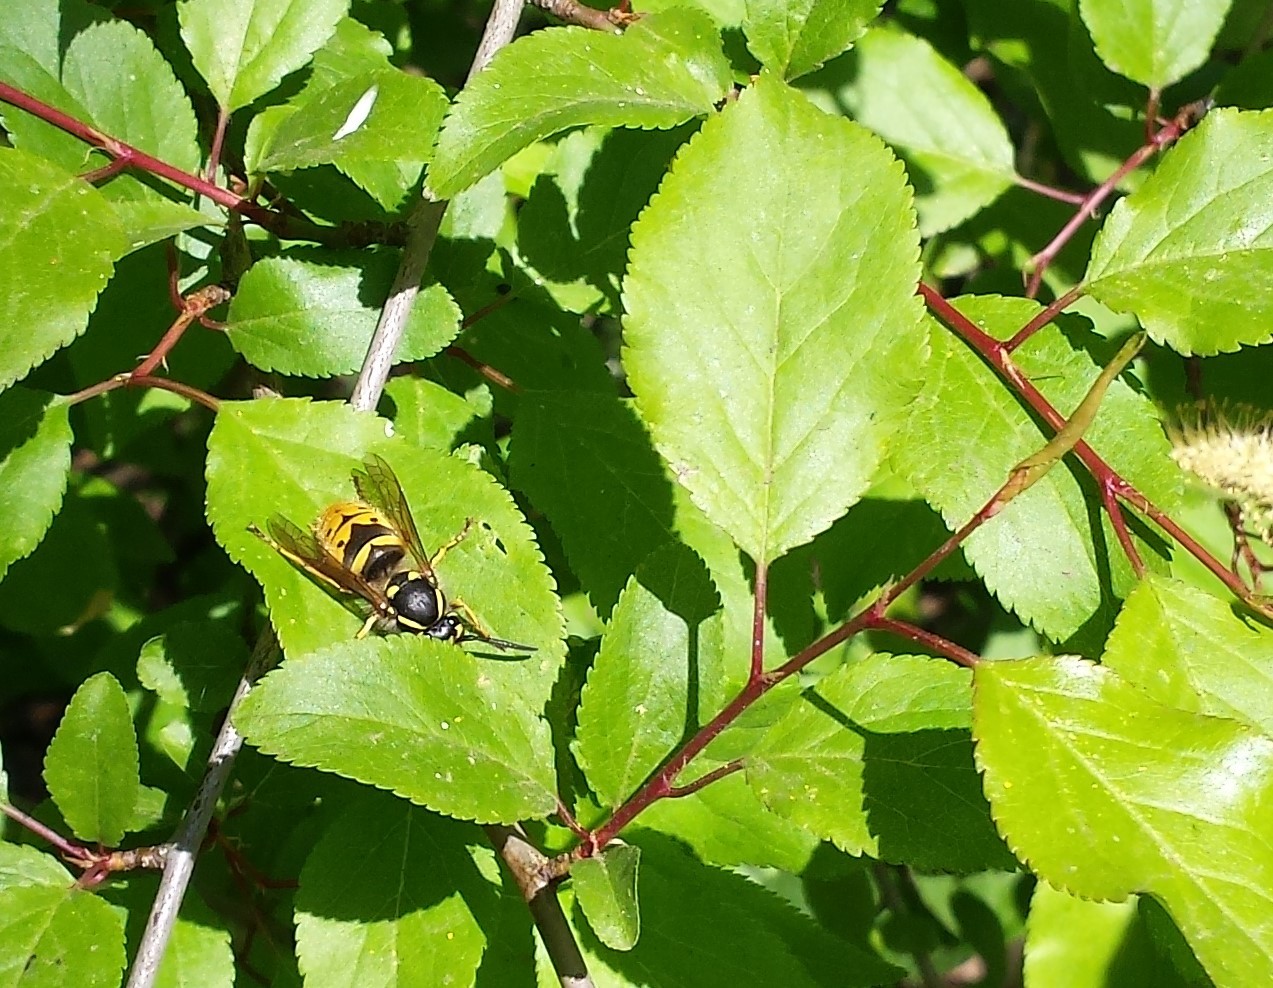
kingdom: Animalia
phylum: Arthropoda
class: Insecta
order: Hymenoptera
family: Vespidae
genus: Vespula
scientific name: Vespula vulgaris
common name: Common wasp
